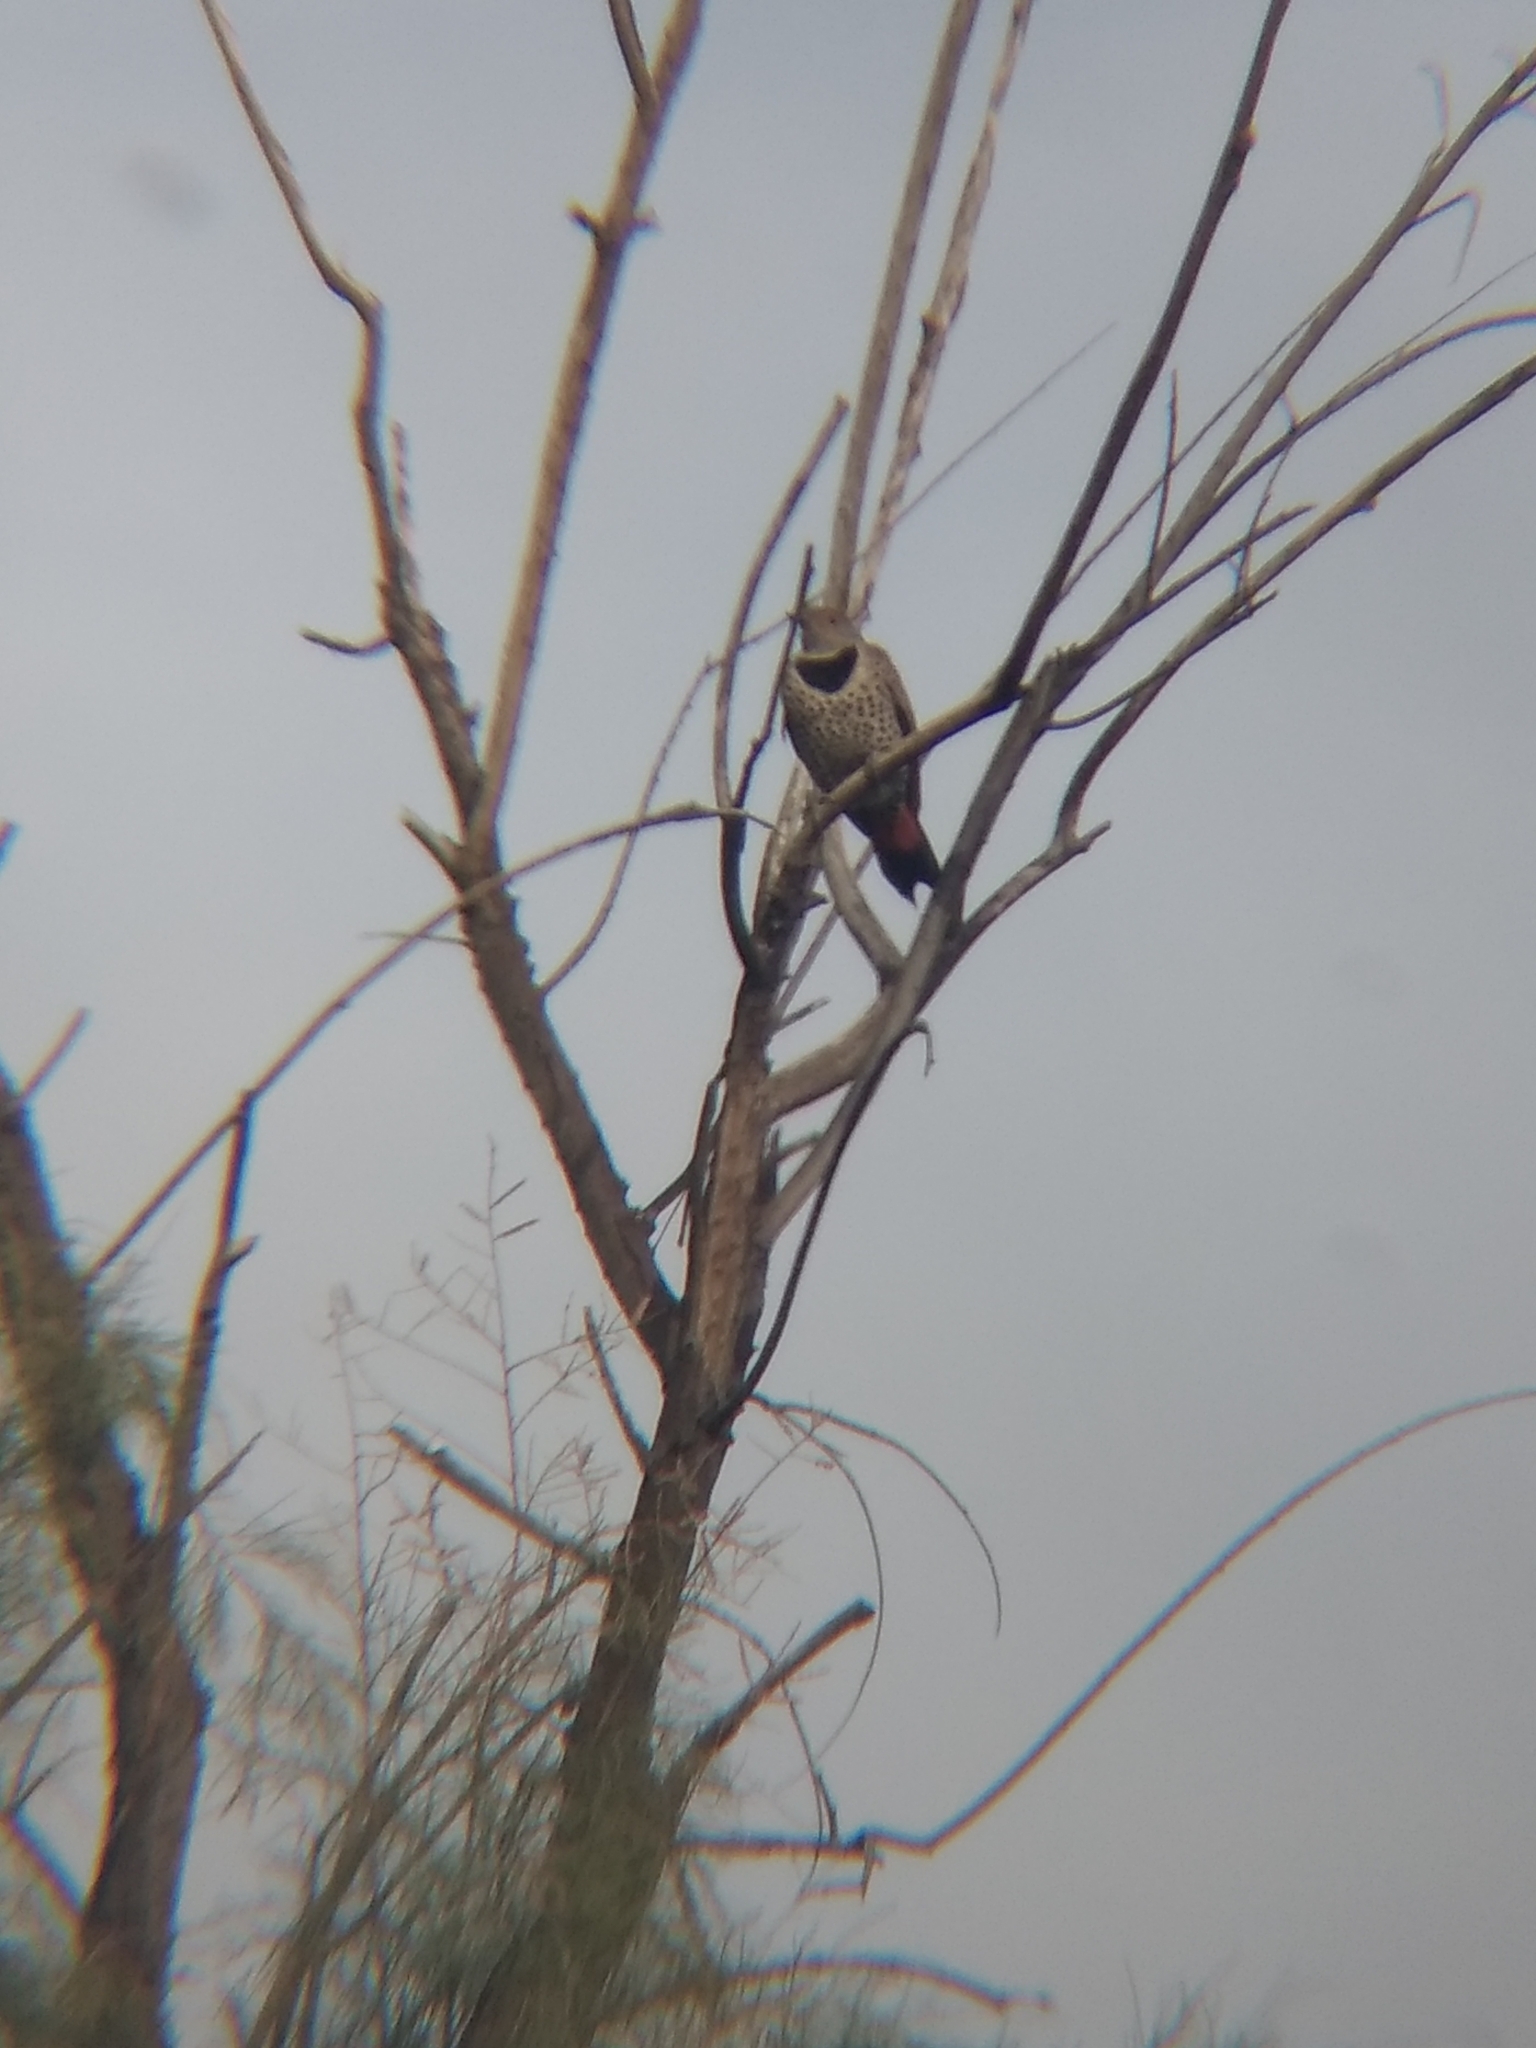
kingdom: Animalia
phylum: Chordata
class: Aves
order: Piciformes
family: Picidae
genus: Colaptes
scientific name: Colaptes auratus
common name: Northern flicker
